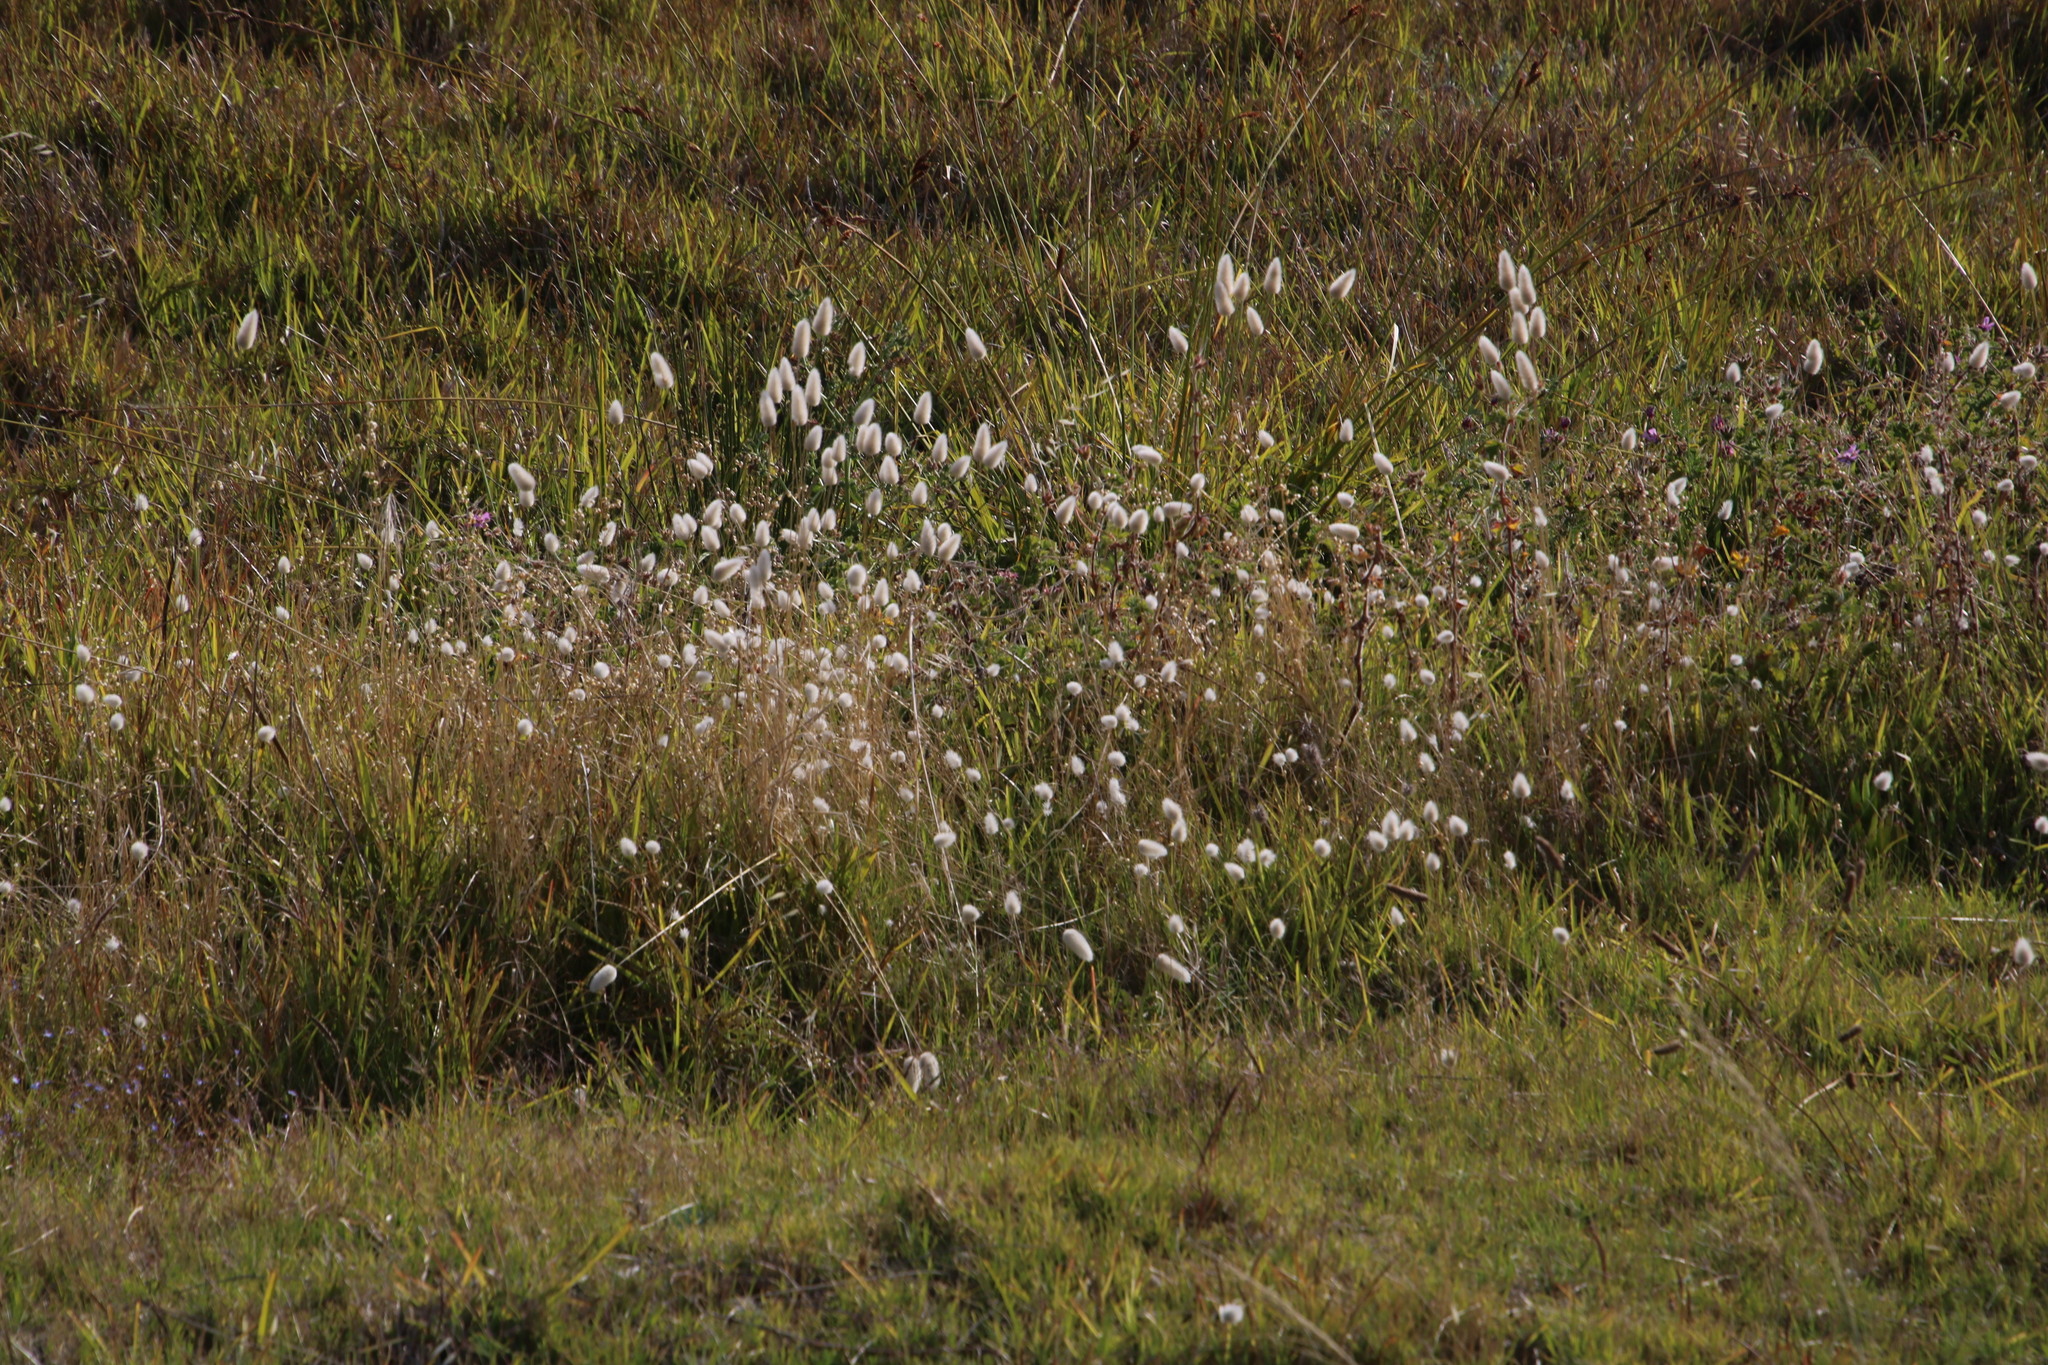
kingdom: Plantae
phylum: Tracheophyta
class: Liliopsida
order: Poales
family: Poaceae
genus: Lagurus
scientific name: Lagurus ovatus
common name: Hare's-tail
